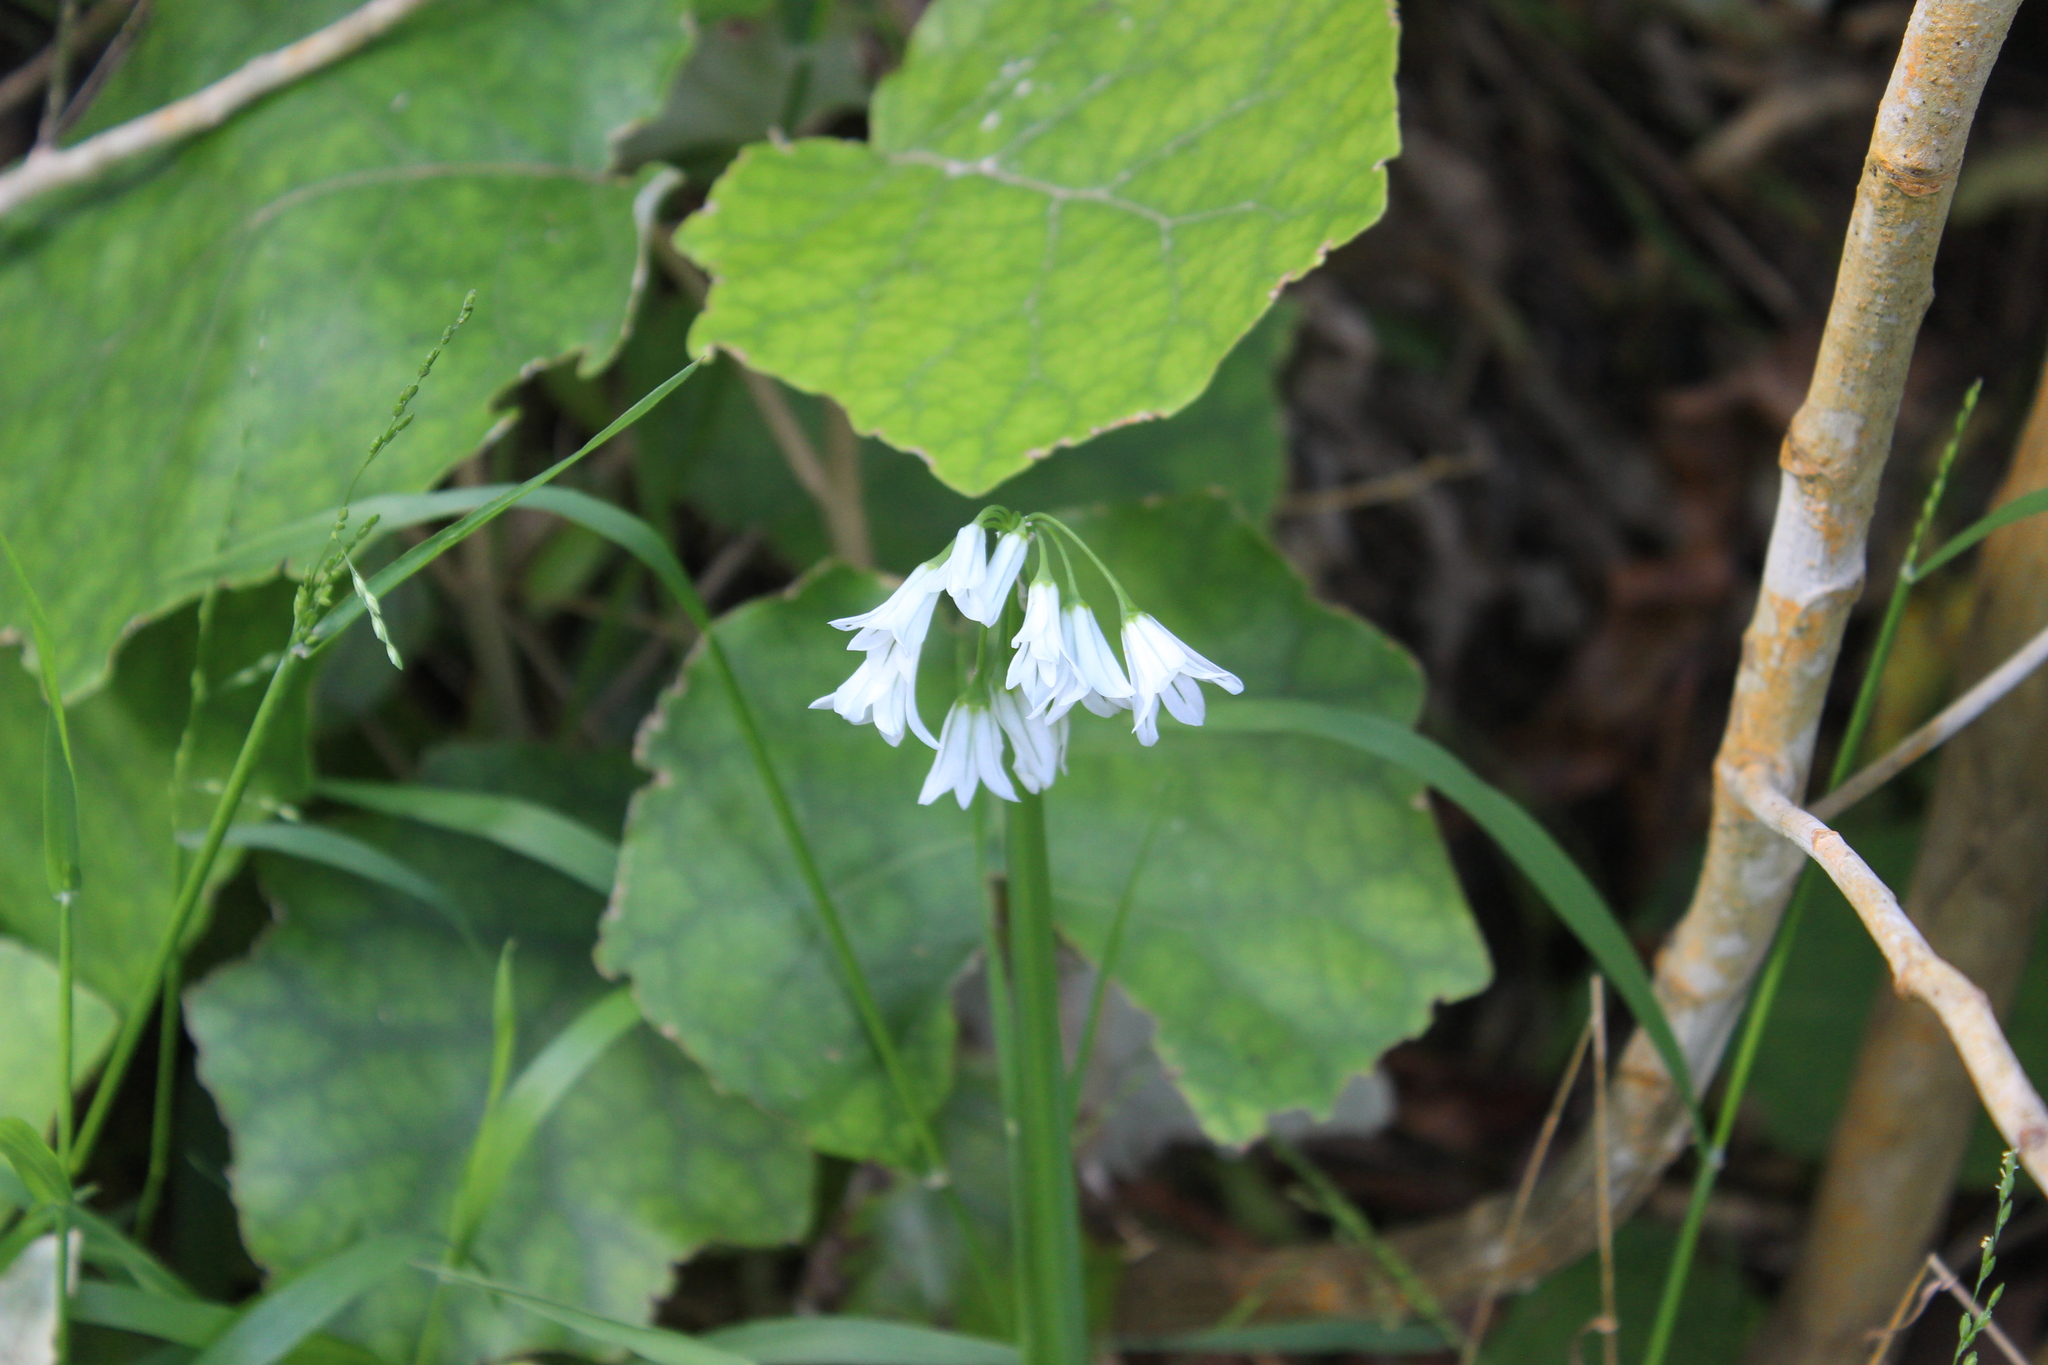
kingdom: Plantae
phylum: Tracheophyta
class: Liliopsida
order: Asparagales
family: Amaryllidaceae
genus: Allium
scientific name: Allium triquetrum
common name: Three-cornered garlic
